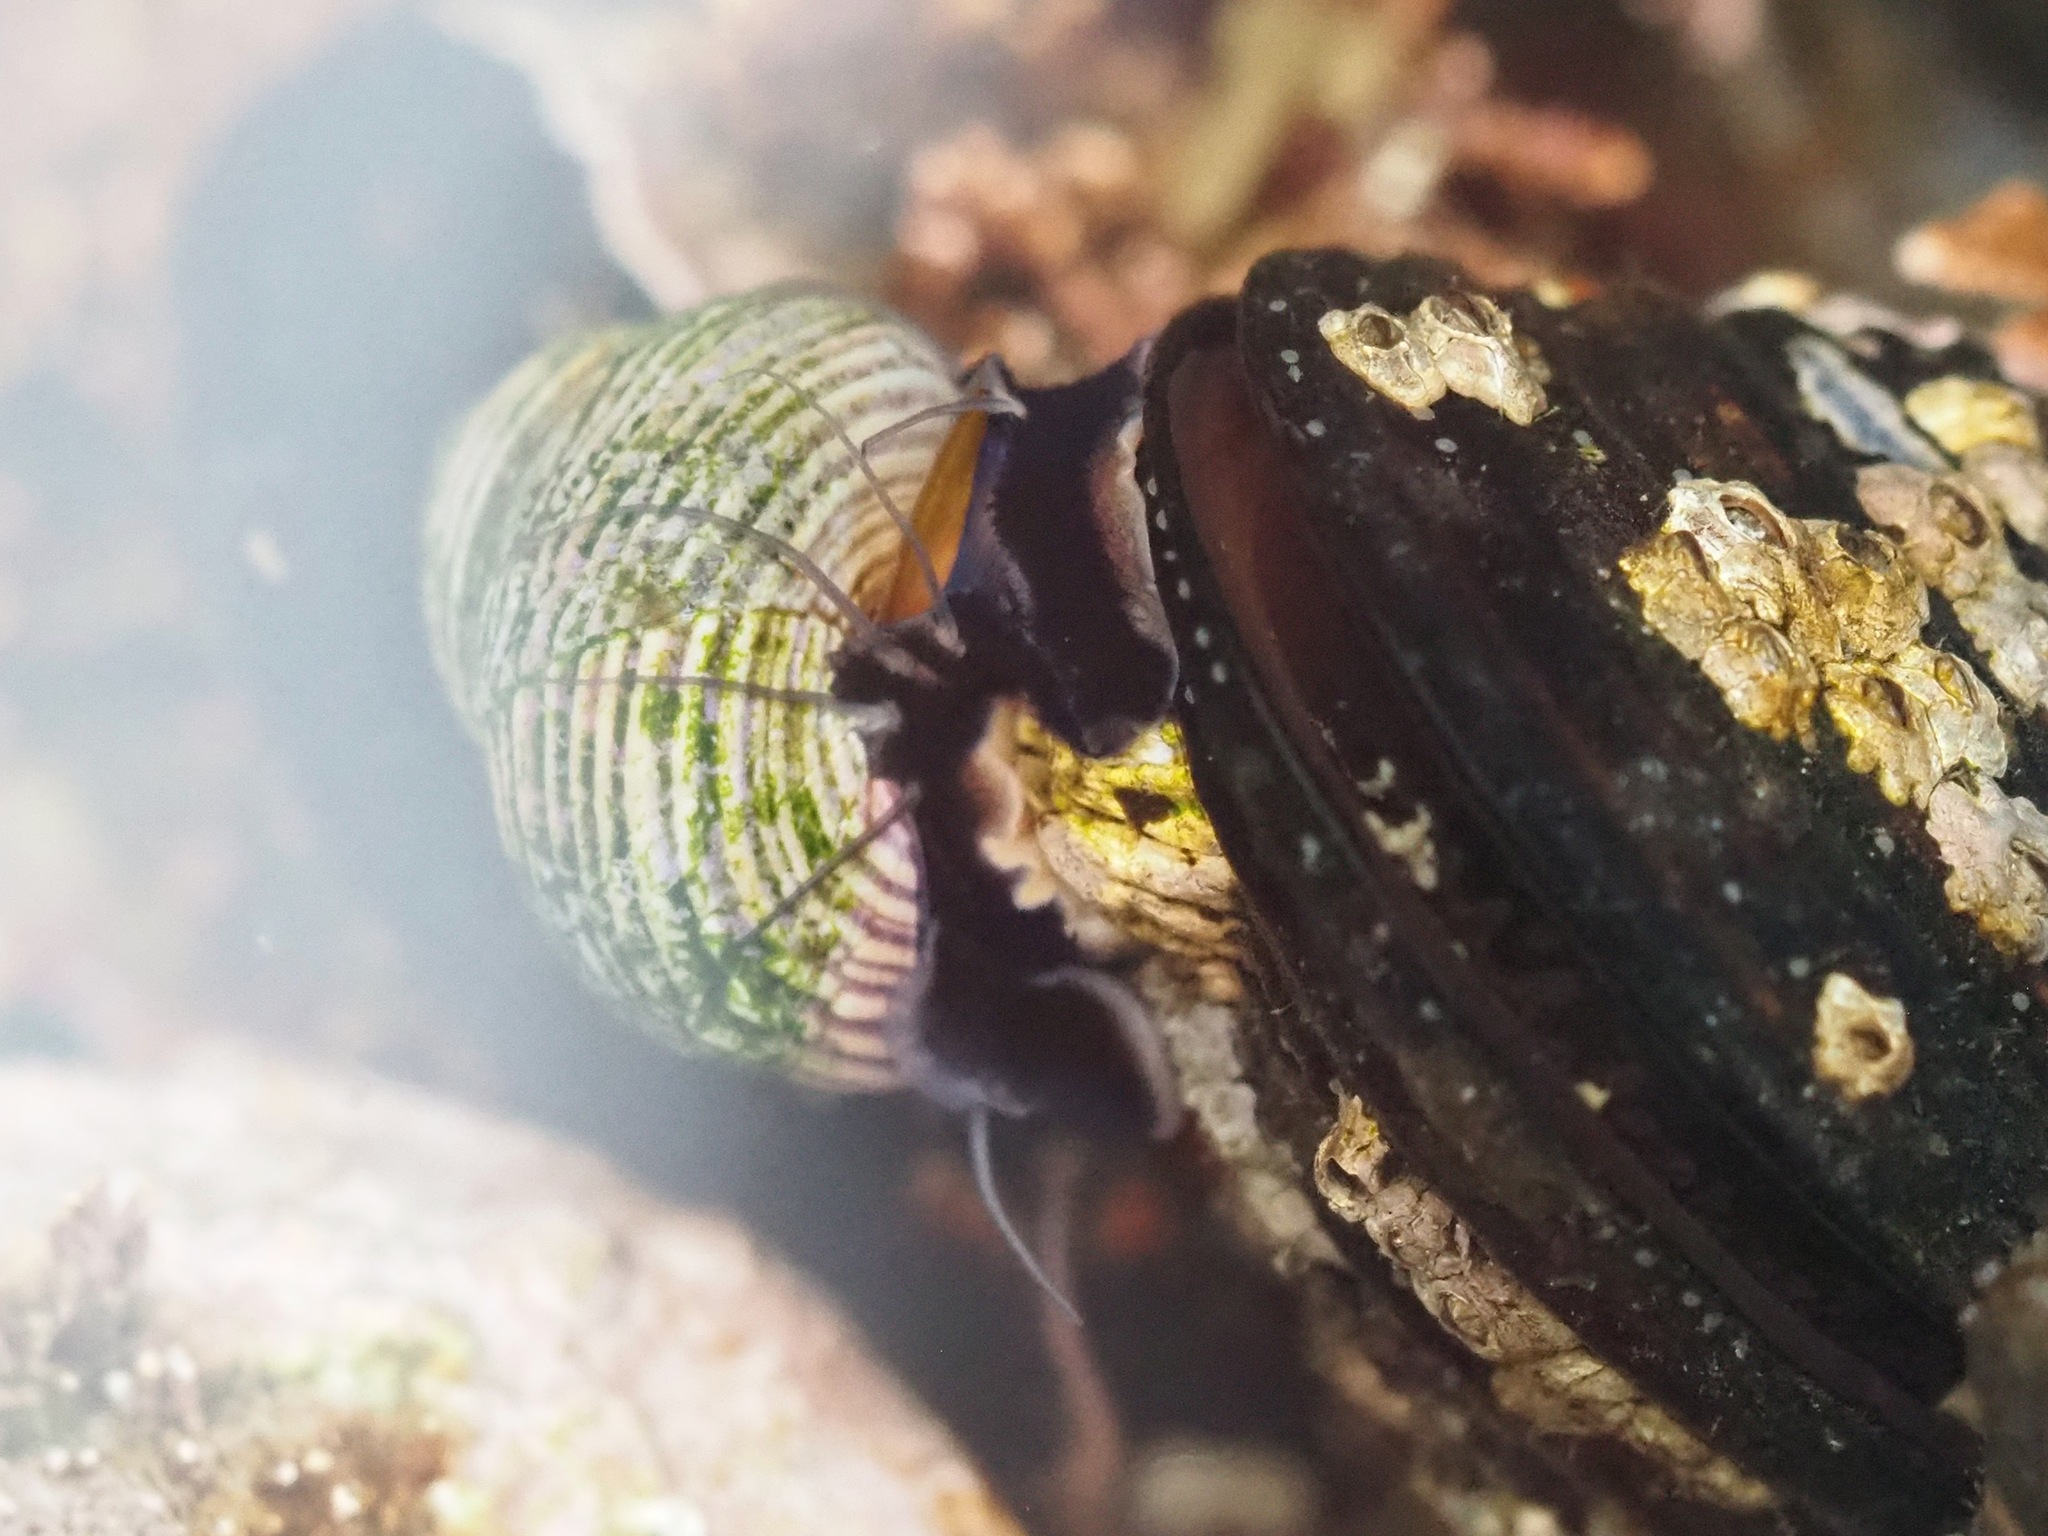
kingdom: Animalia
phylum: Mollusca
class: Gastropoda
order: Trochida
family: Calliostomatidae
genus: Calliostoma
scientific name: Calliostoma ligatum
